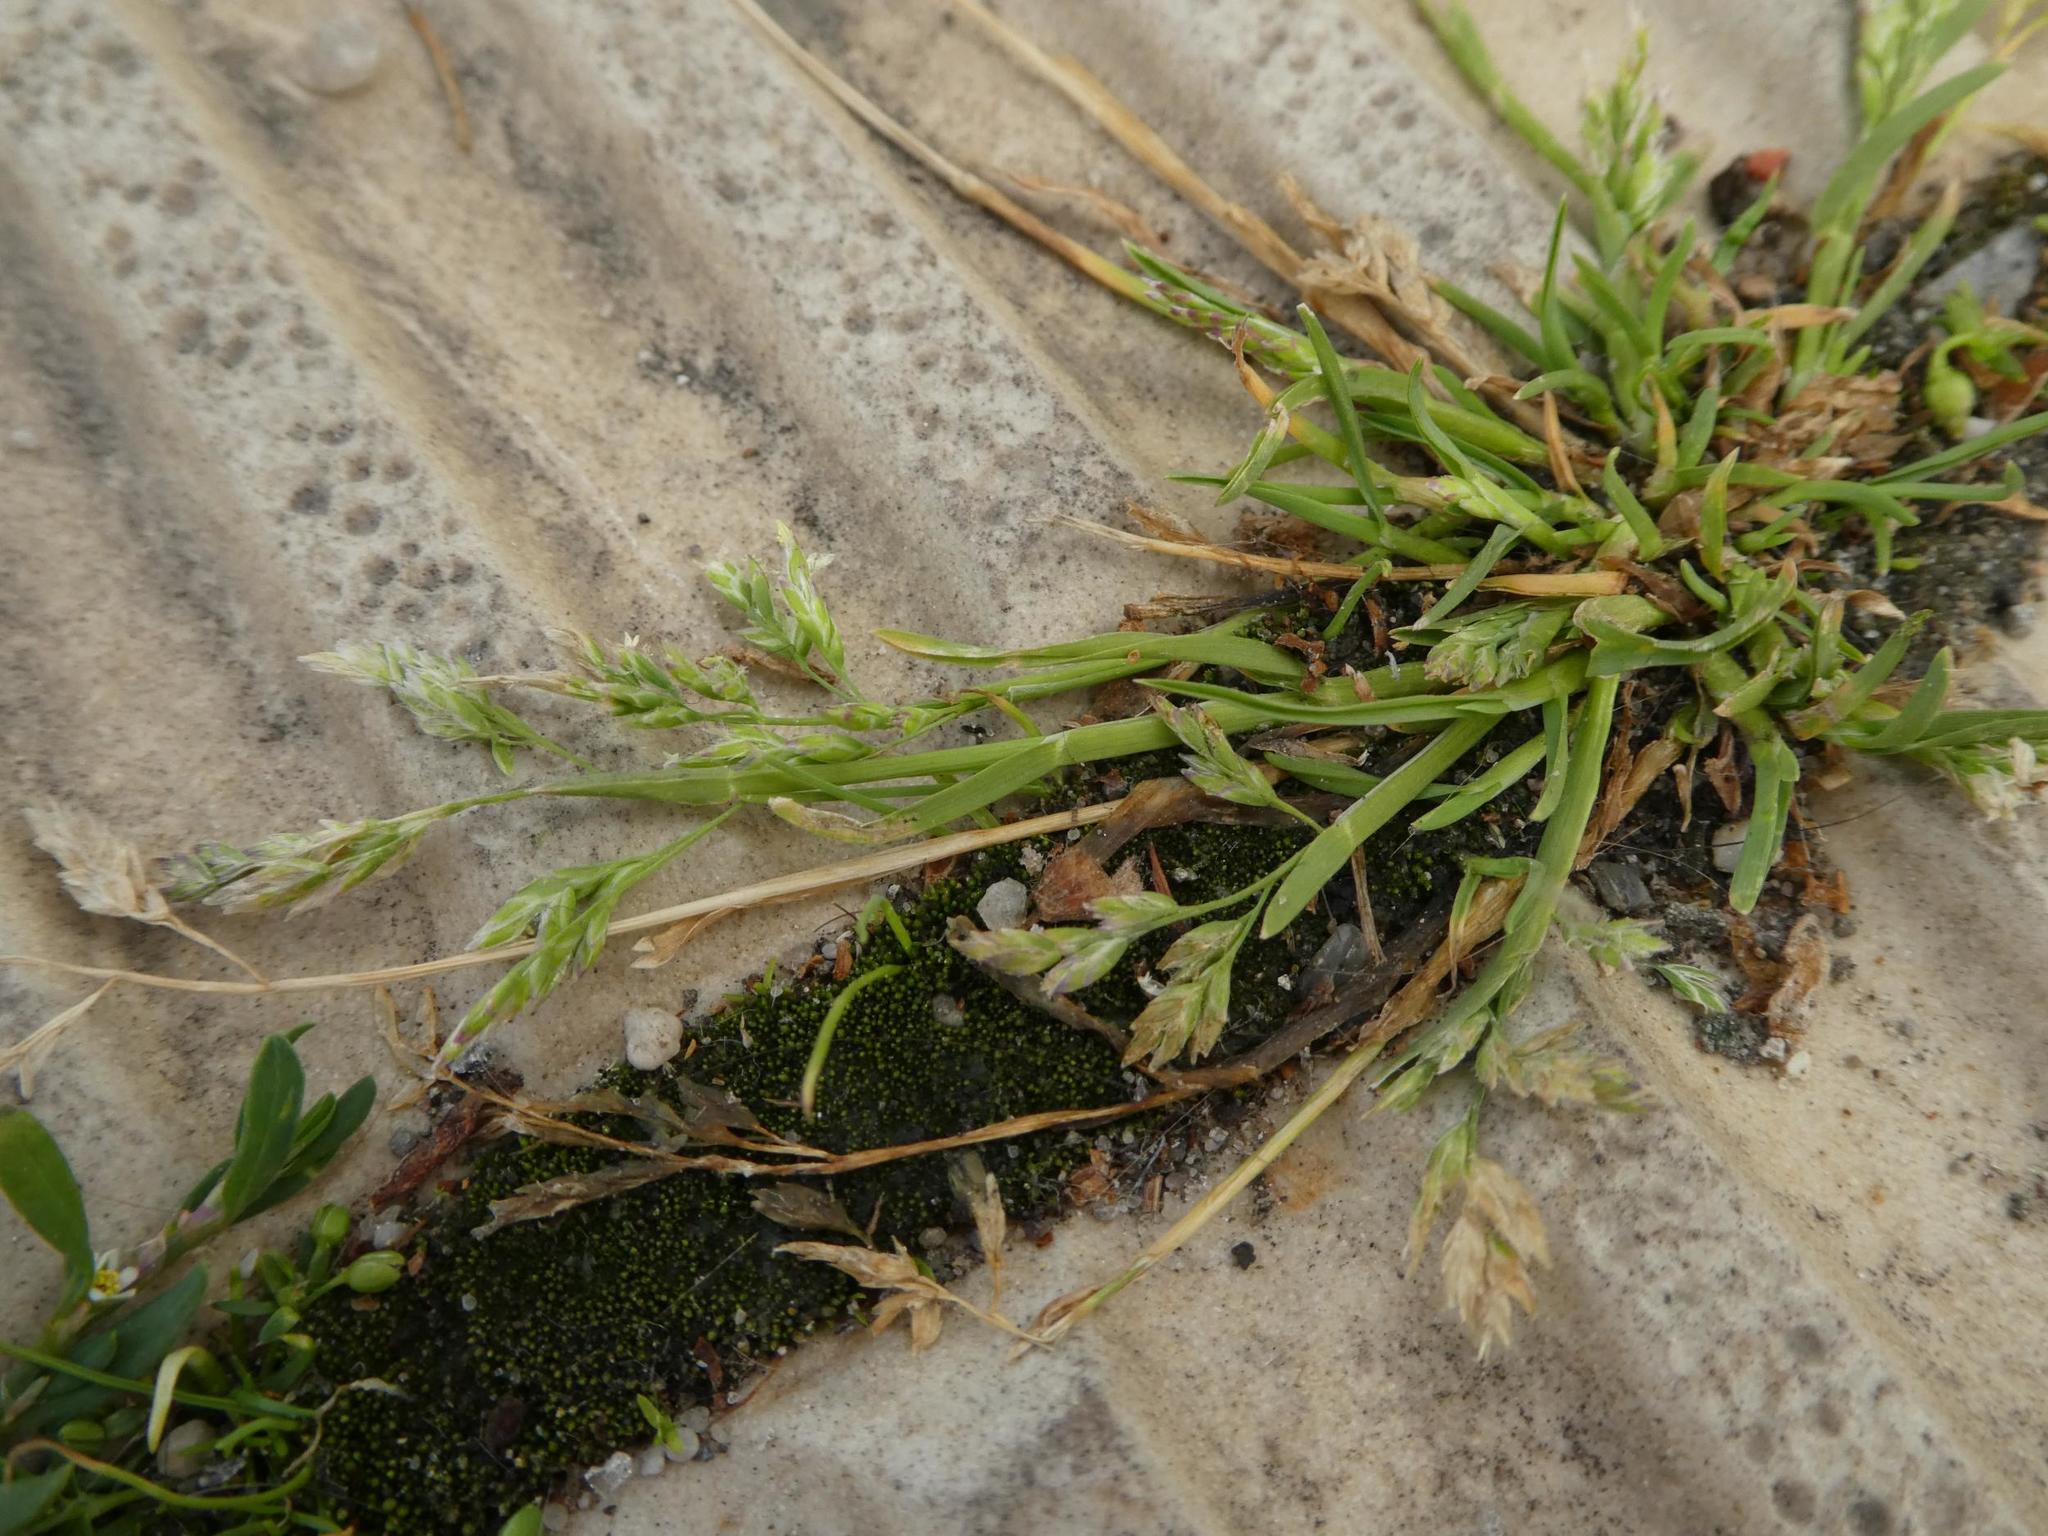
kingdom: Plantae
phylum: Tracheophyta
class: Liliopsida
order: Poales
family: Poaceae
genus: Poa
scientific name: Poa annua
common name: Annual bluegrass
